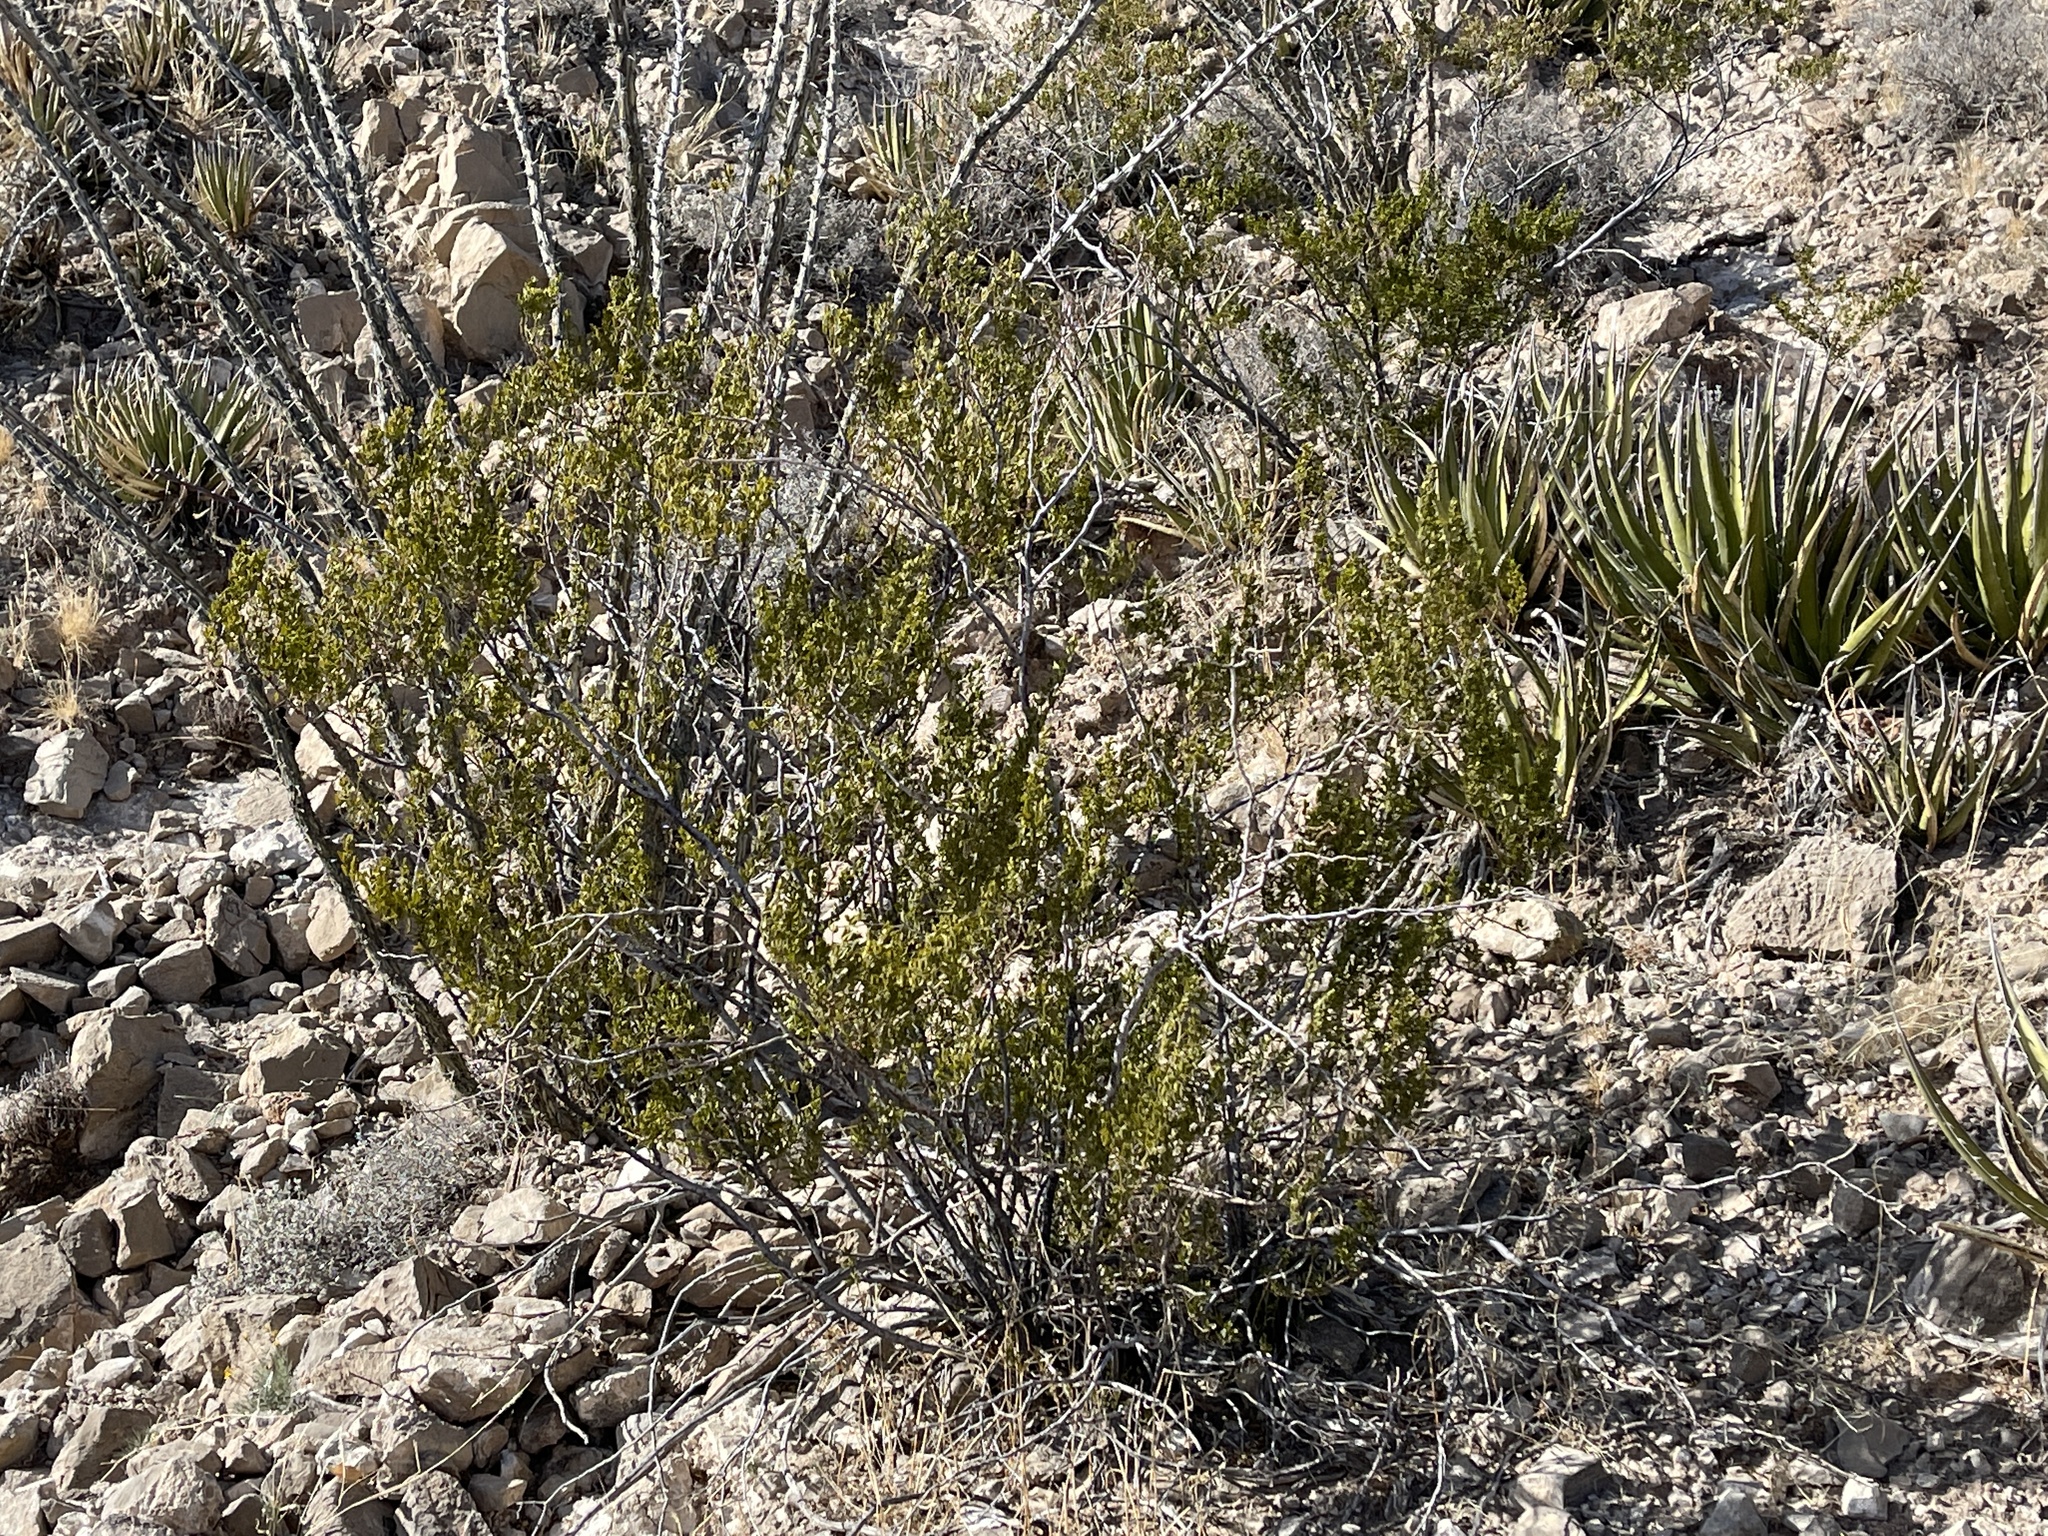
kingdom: Plantae
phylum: Tracheophyta
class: Magnoliopsida
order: Zygophyllales
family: Zygophyllaceae
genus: Larrea
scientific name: Larrea tridentata
